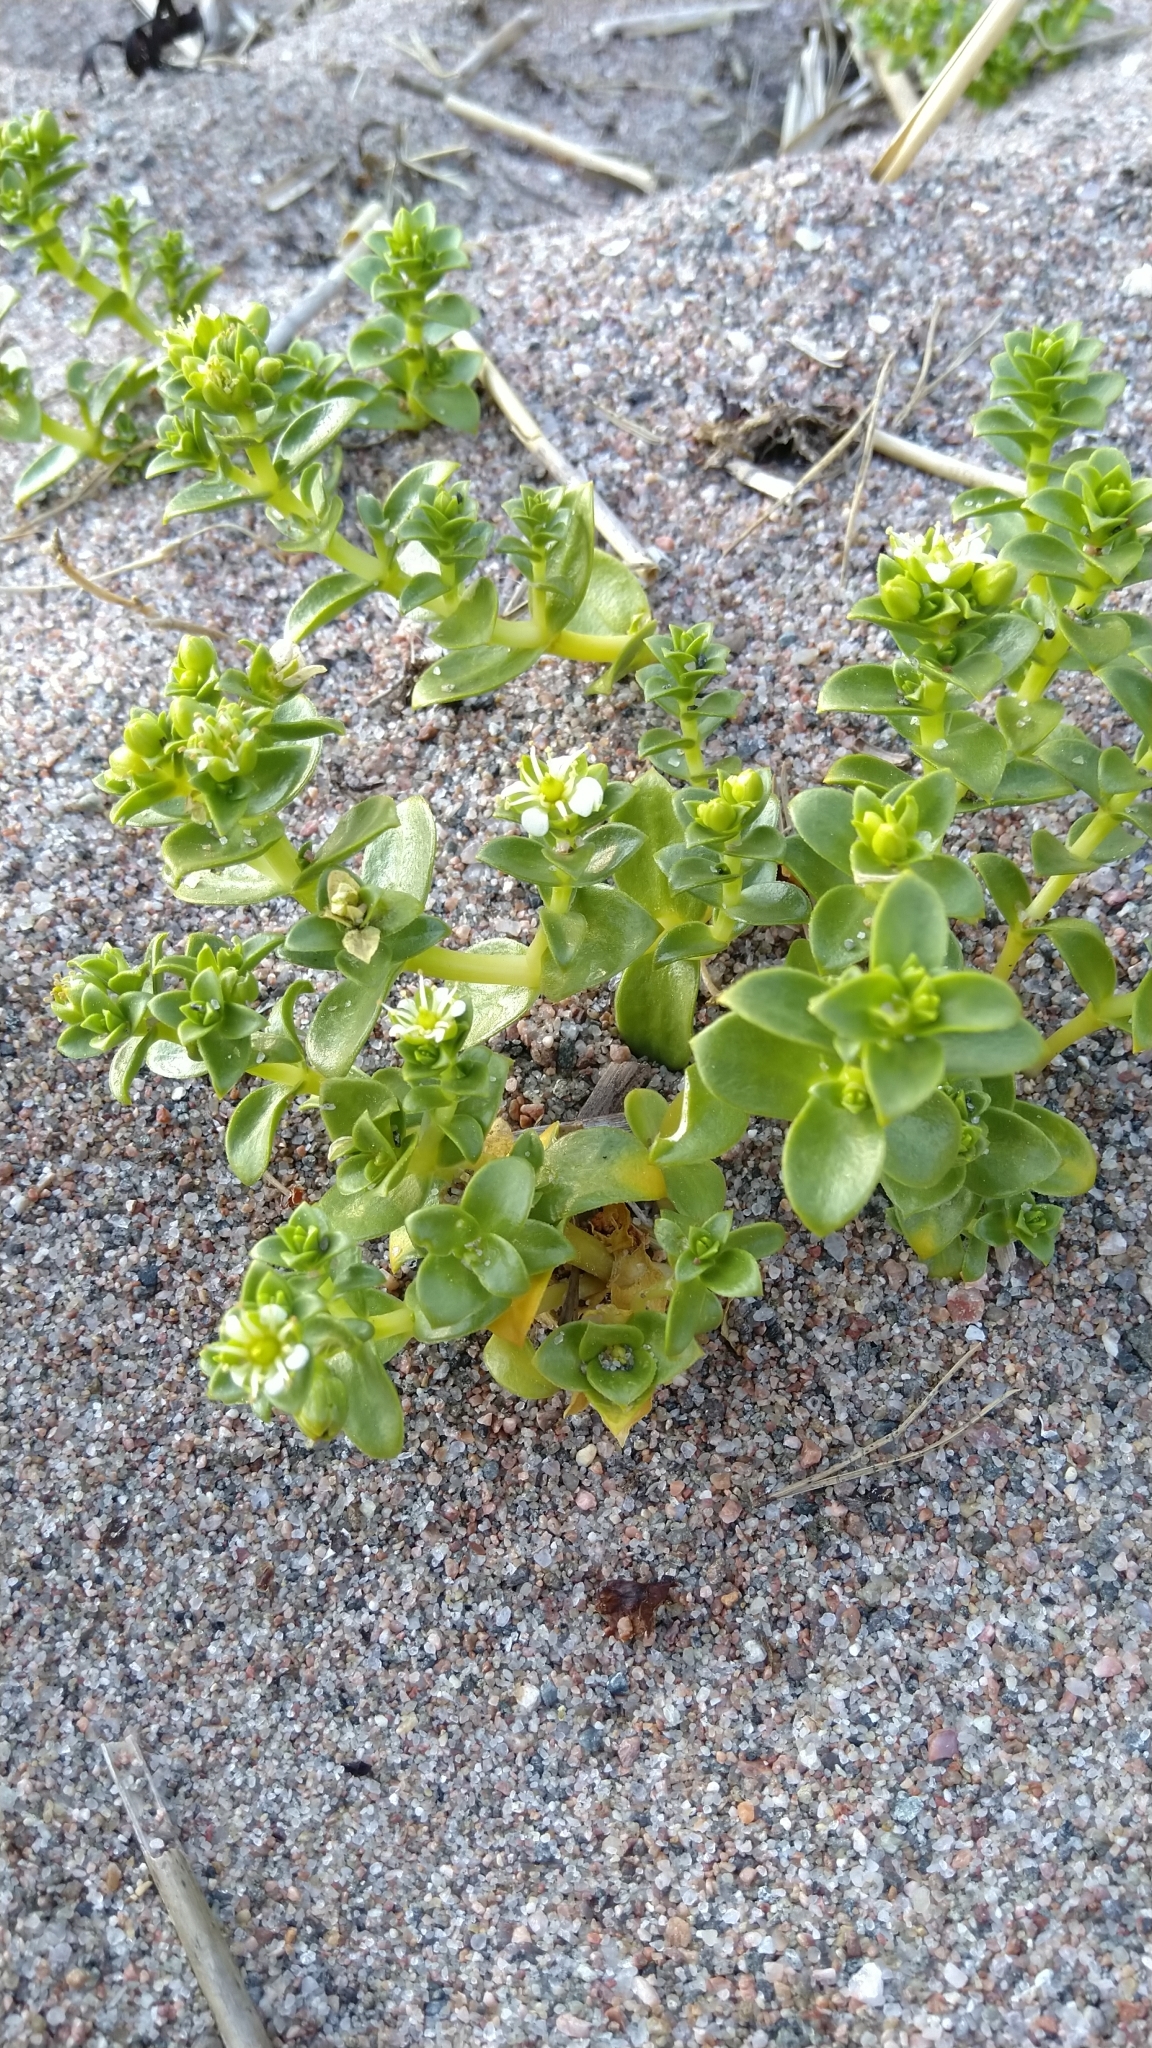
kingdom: Plantae
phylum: Tracheophyta
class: Magnoliopsida
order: Caryophyllales
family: Caryophyllaceae
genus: Honckenya
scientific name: Honckenya peploides
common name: Sea sandwort
